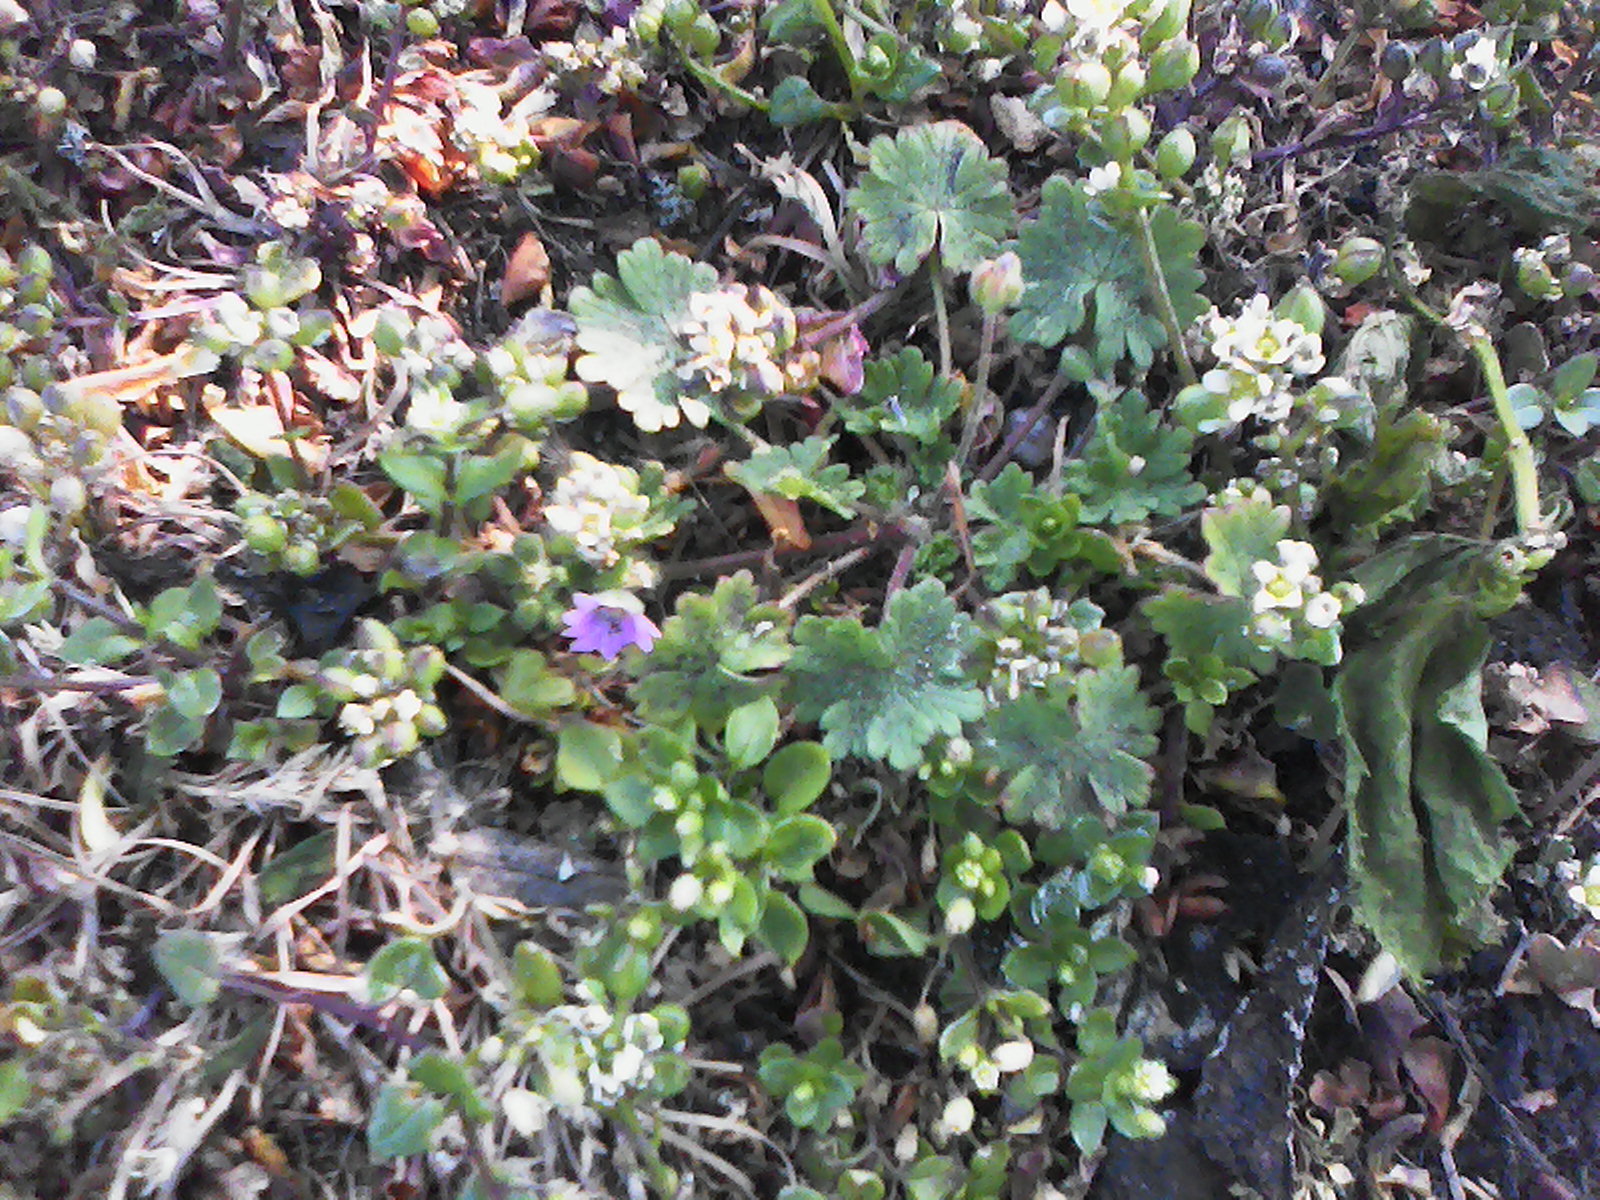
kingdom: Plantae
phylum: Tracheophyta
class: Magnoliopsida
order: Geraniales
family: Geraniaceae
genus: Geranium
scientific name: Geranium molle
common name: Dove's-foot crane's-bill
